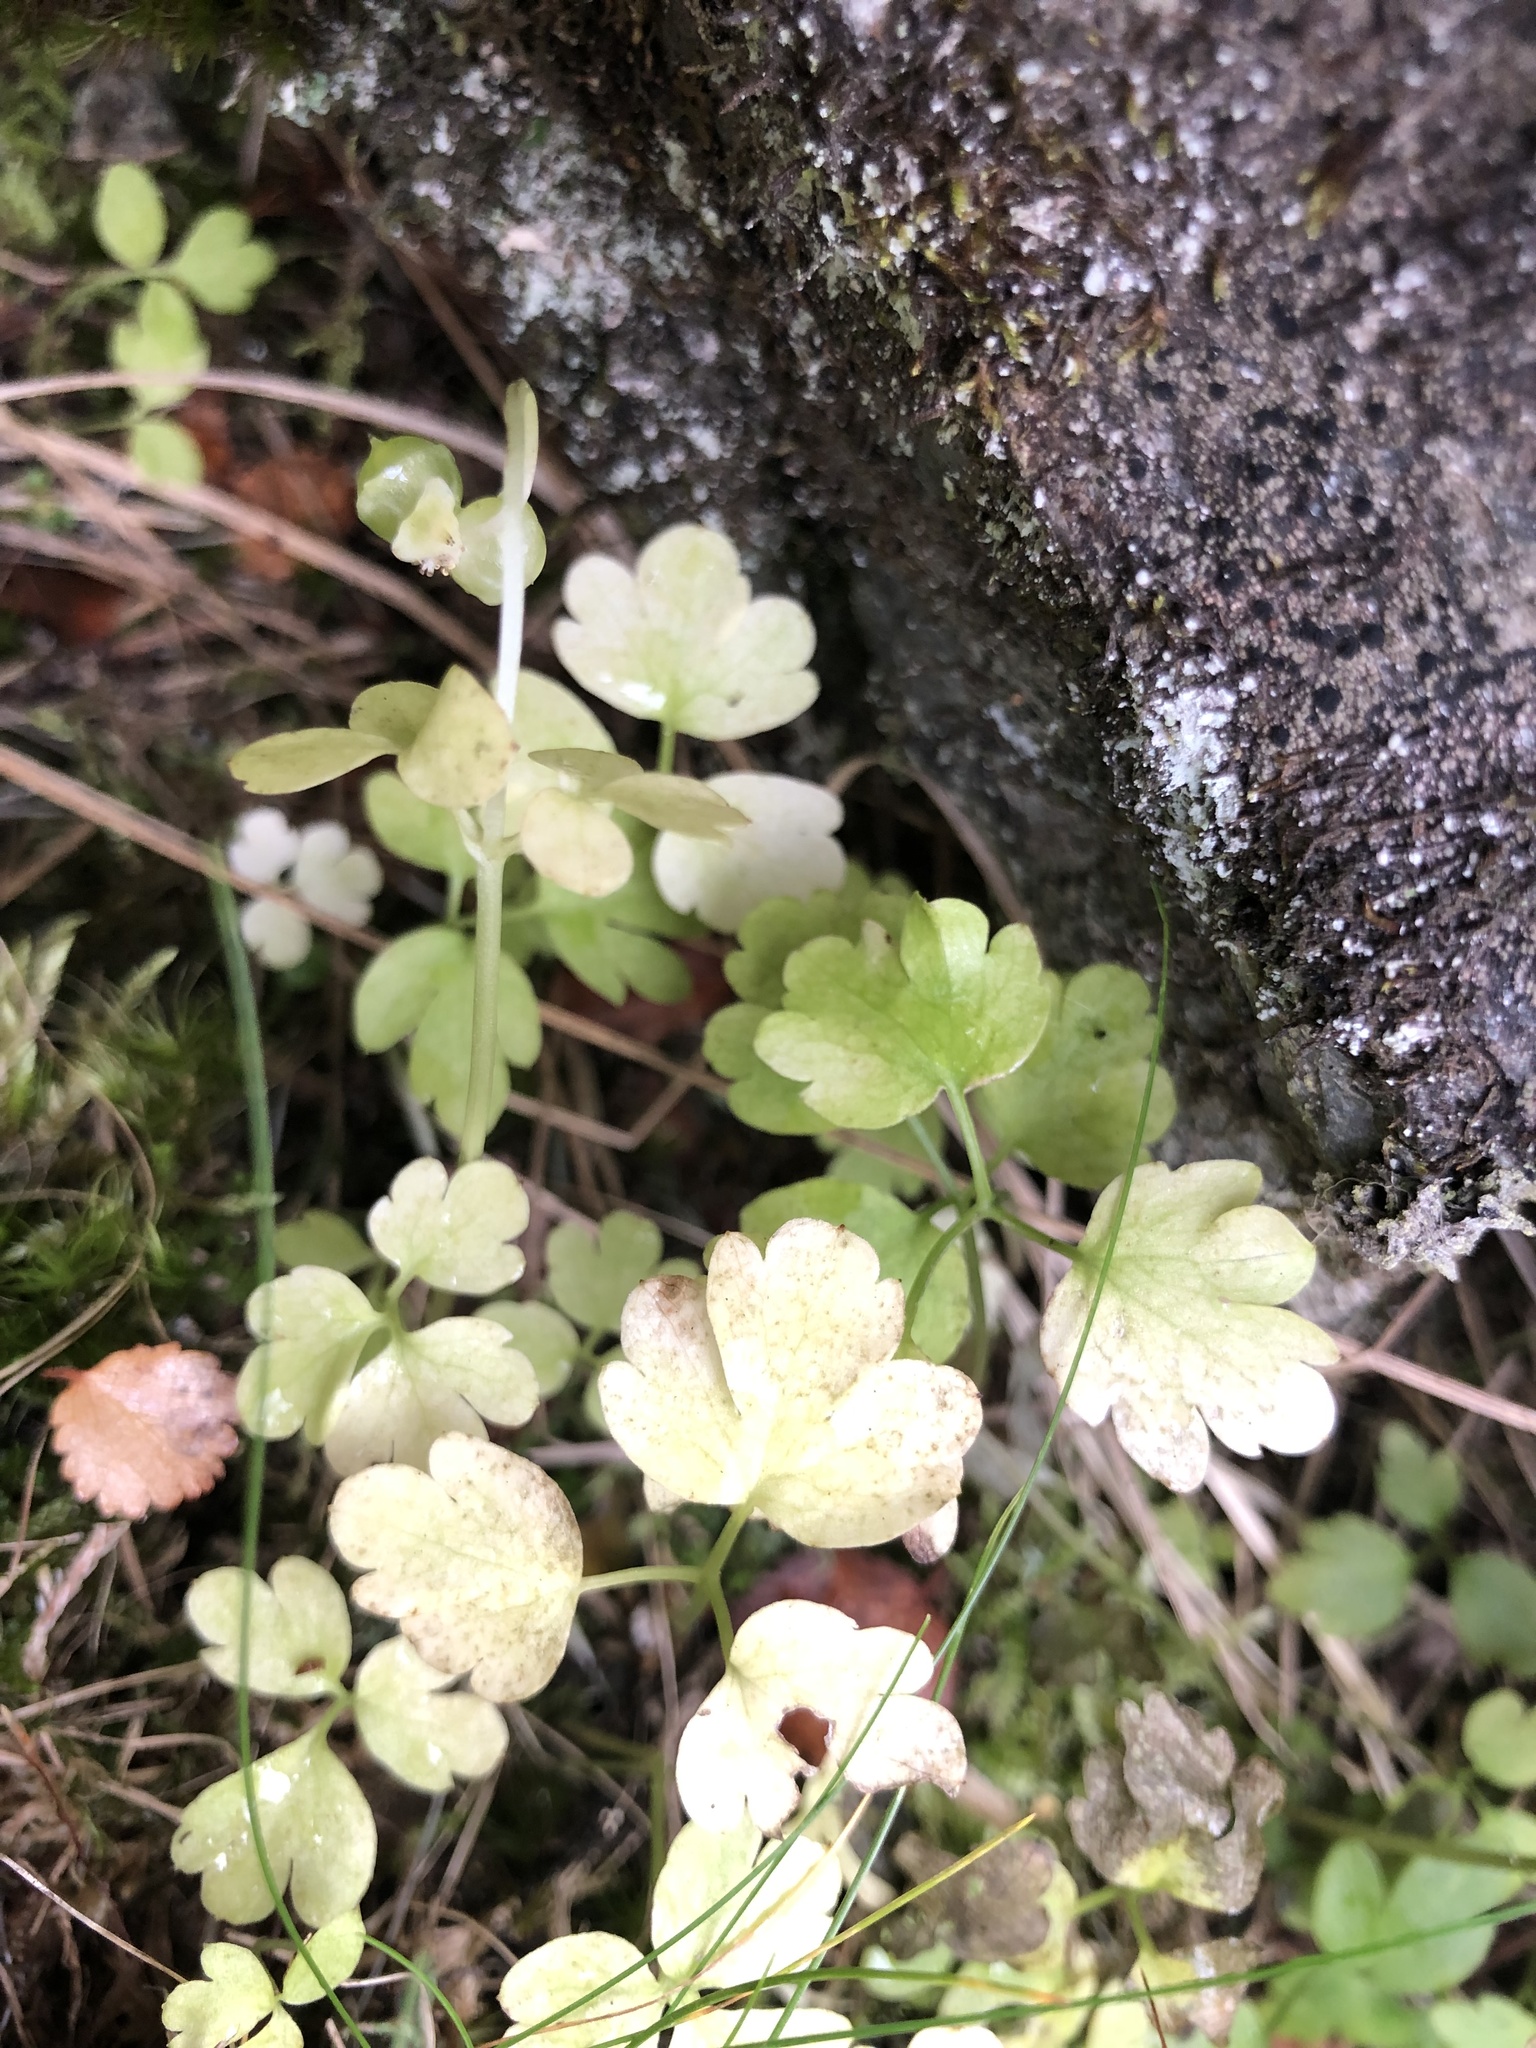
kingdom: Plantae
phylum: Tracheophyta
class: Magnoliopsida
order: Dipsacales
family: Viburnaceae
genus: Adoxa
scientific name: Adoxa moschatellina
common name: Moschatel
